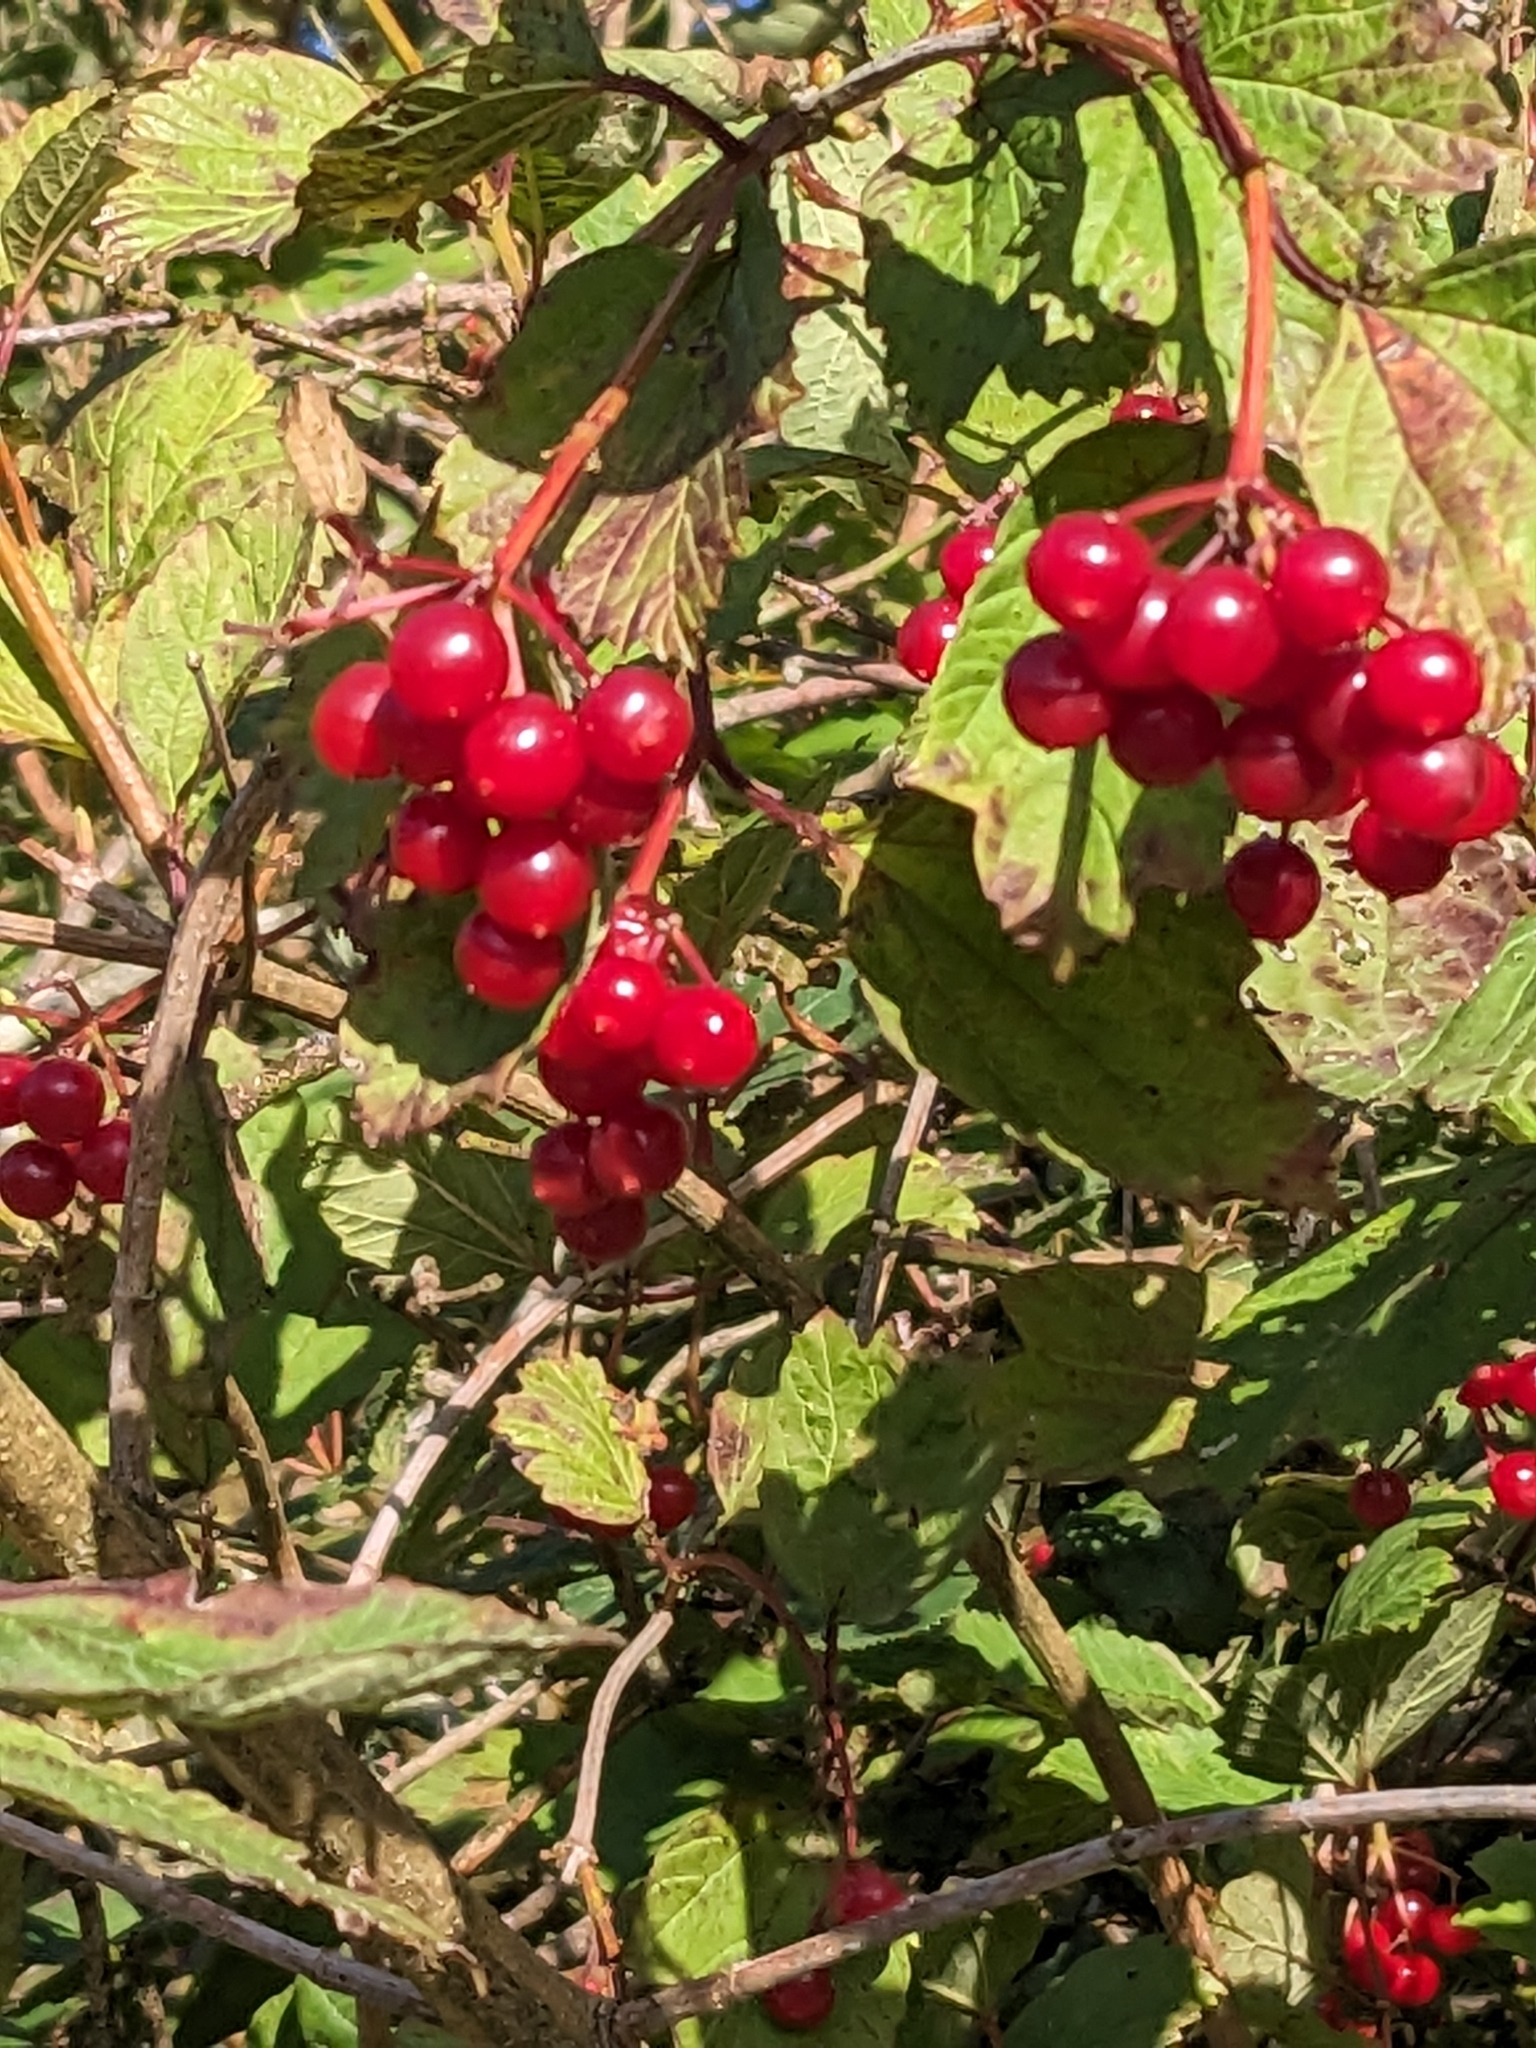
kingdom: Plantae
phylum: Tracheophyta
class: Magnoliopsida
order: Dipsacales
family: Viburnaceae
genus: Viburnum
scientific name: Viburnum opulus
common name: Guelder-rose
